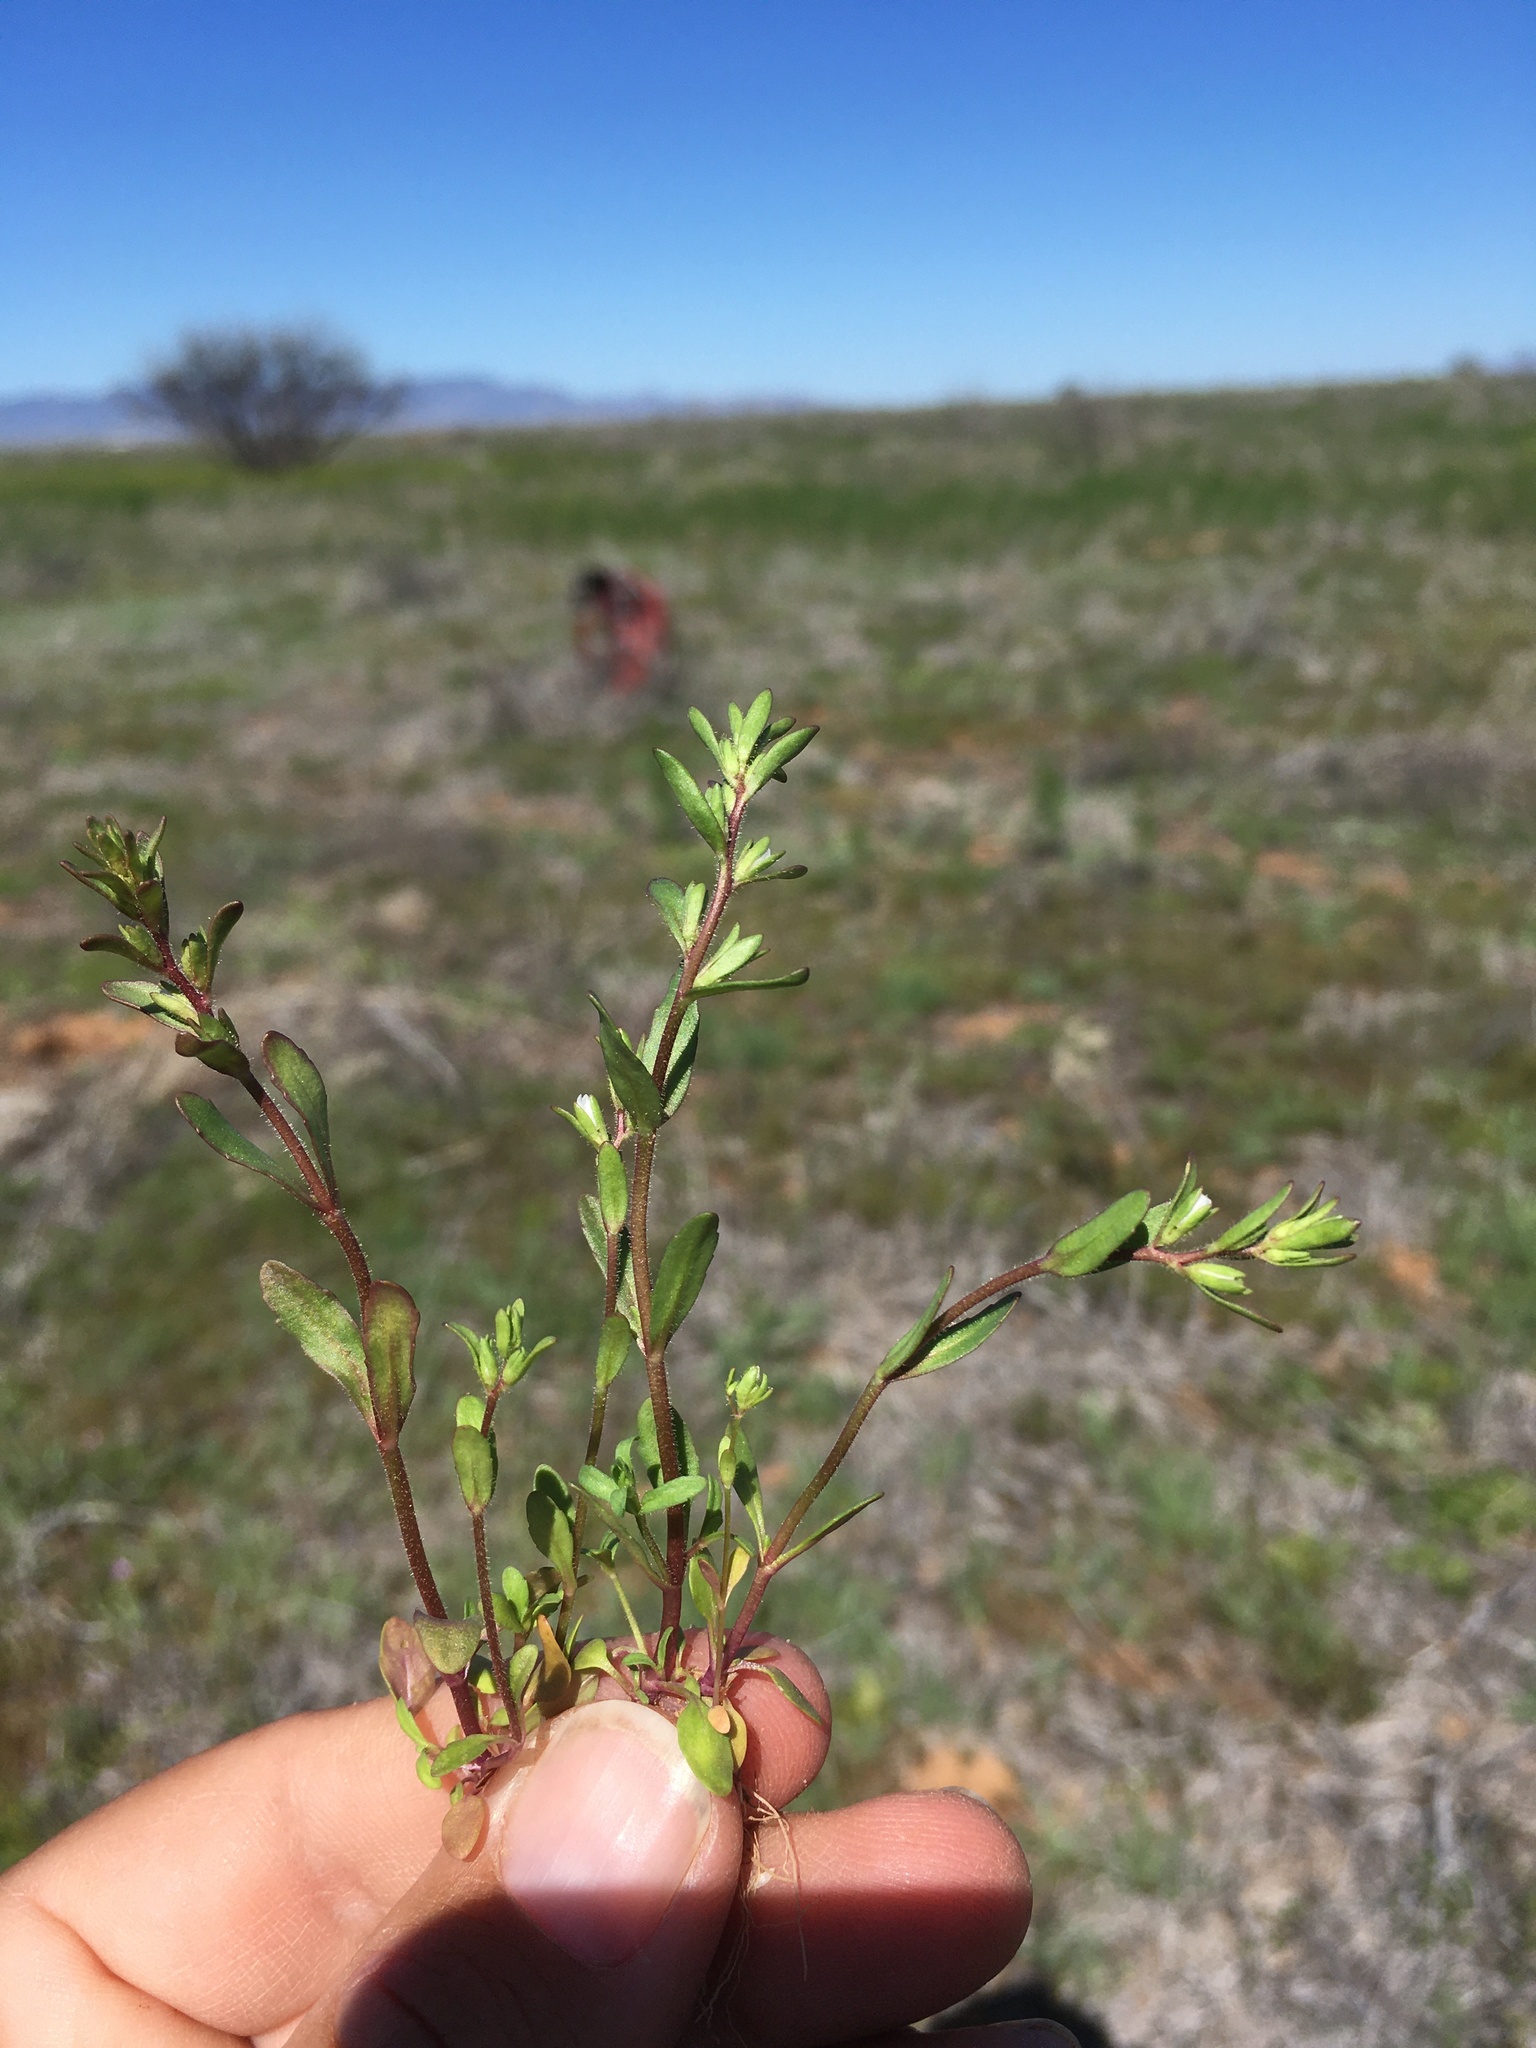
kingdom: Plantae
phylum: Tracheophyta
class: Magnoliopsida
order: Lamiales
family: Plantaginaceae
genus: Veronica
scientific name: Veronica peregrina
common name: Neckweed
